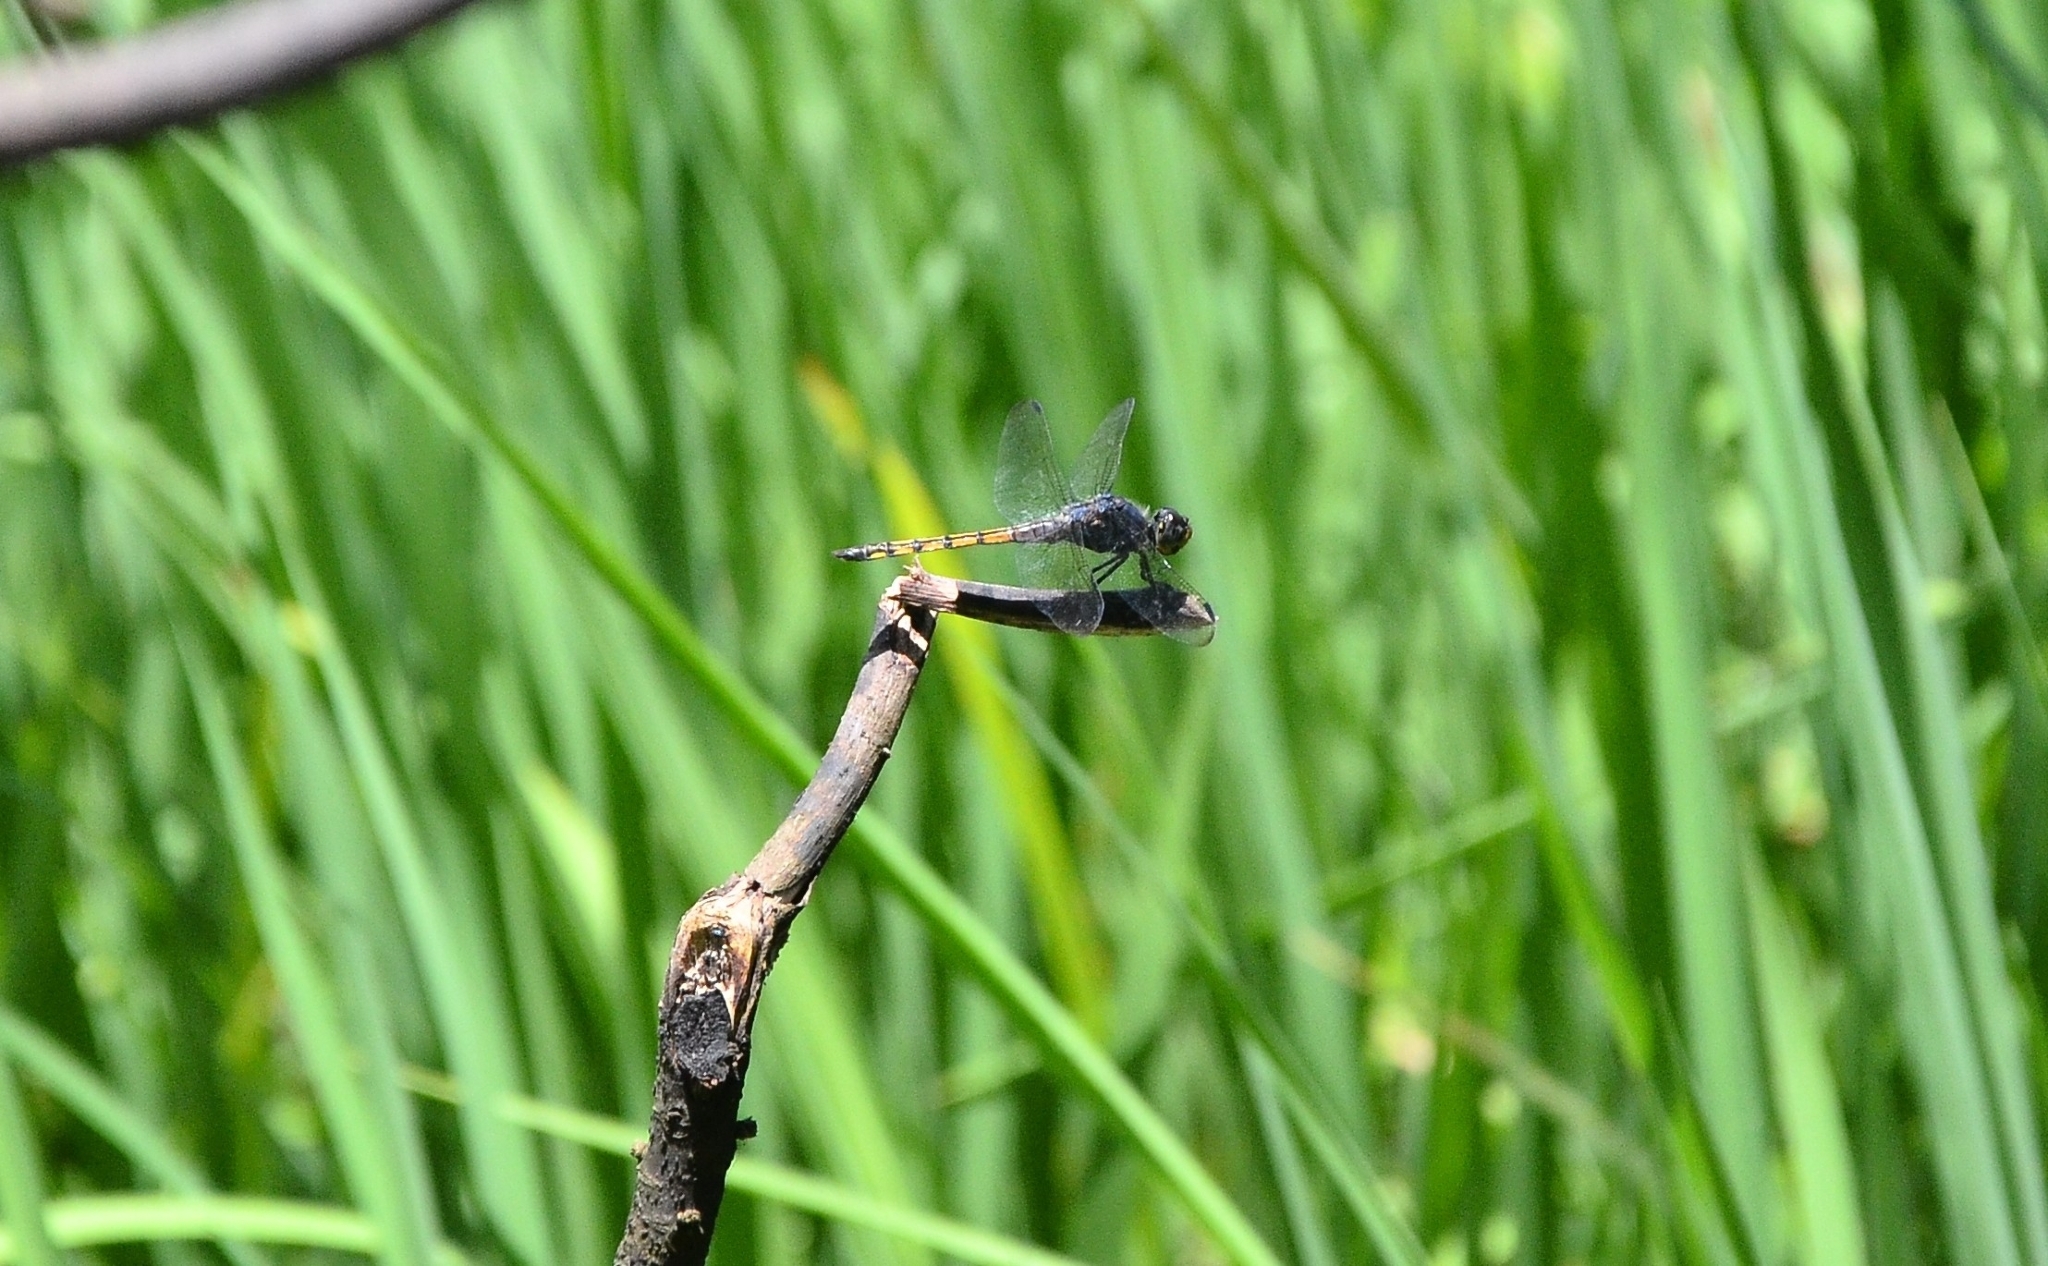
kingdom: Animalia
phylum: Arthropoda
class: Insecta
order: Odonata
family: Libellulidae
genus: Potamarcha
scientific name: Potamarcha congener
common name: Blue chaser
